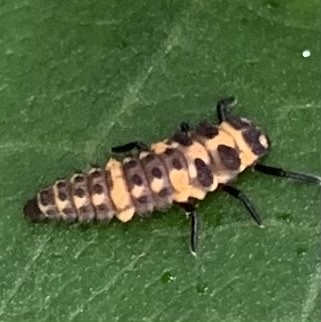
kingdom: Animalia
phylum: Arthropoda
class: Insecta
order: Coleoptera
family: Coccinellidae
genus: Coleomegilla
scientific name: Coleomegilla maculata
